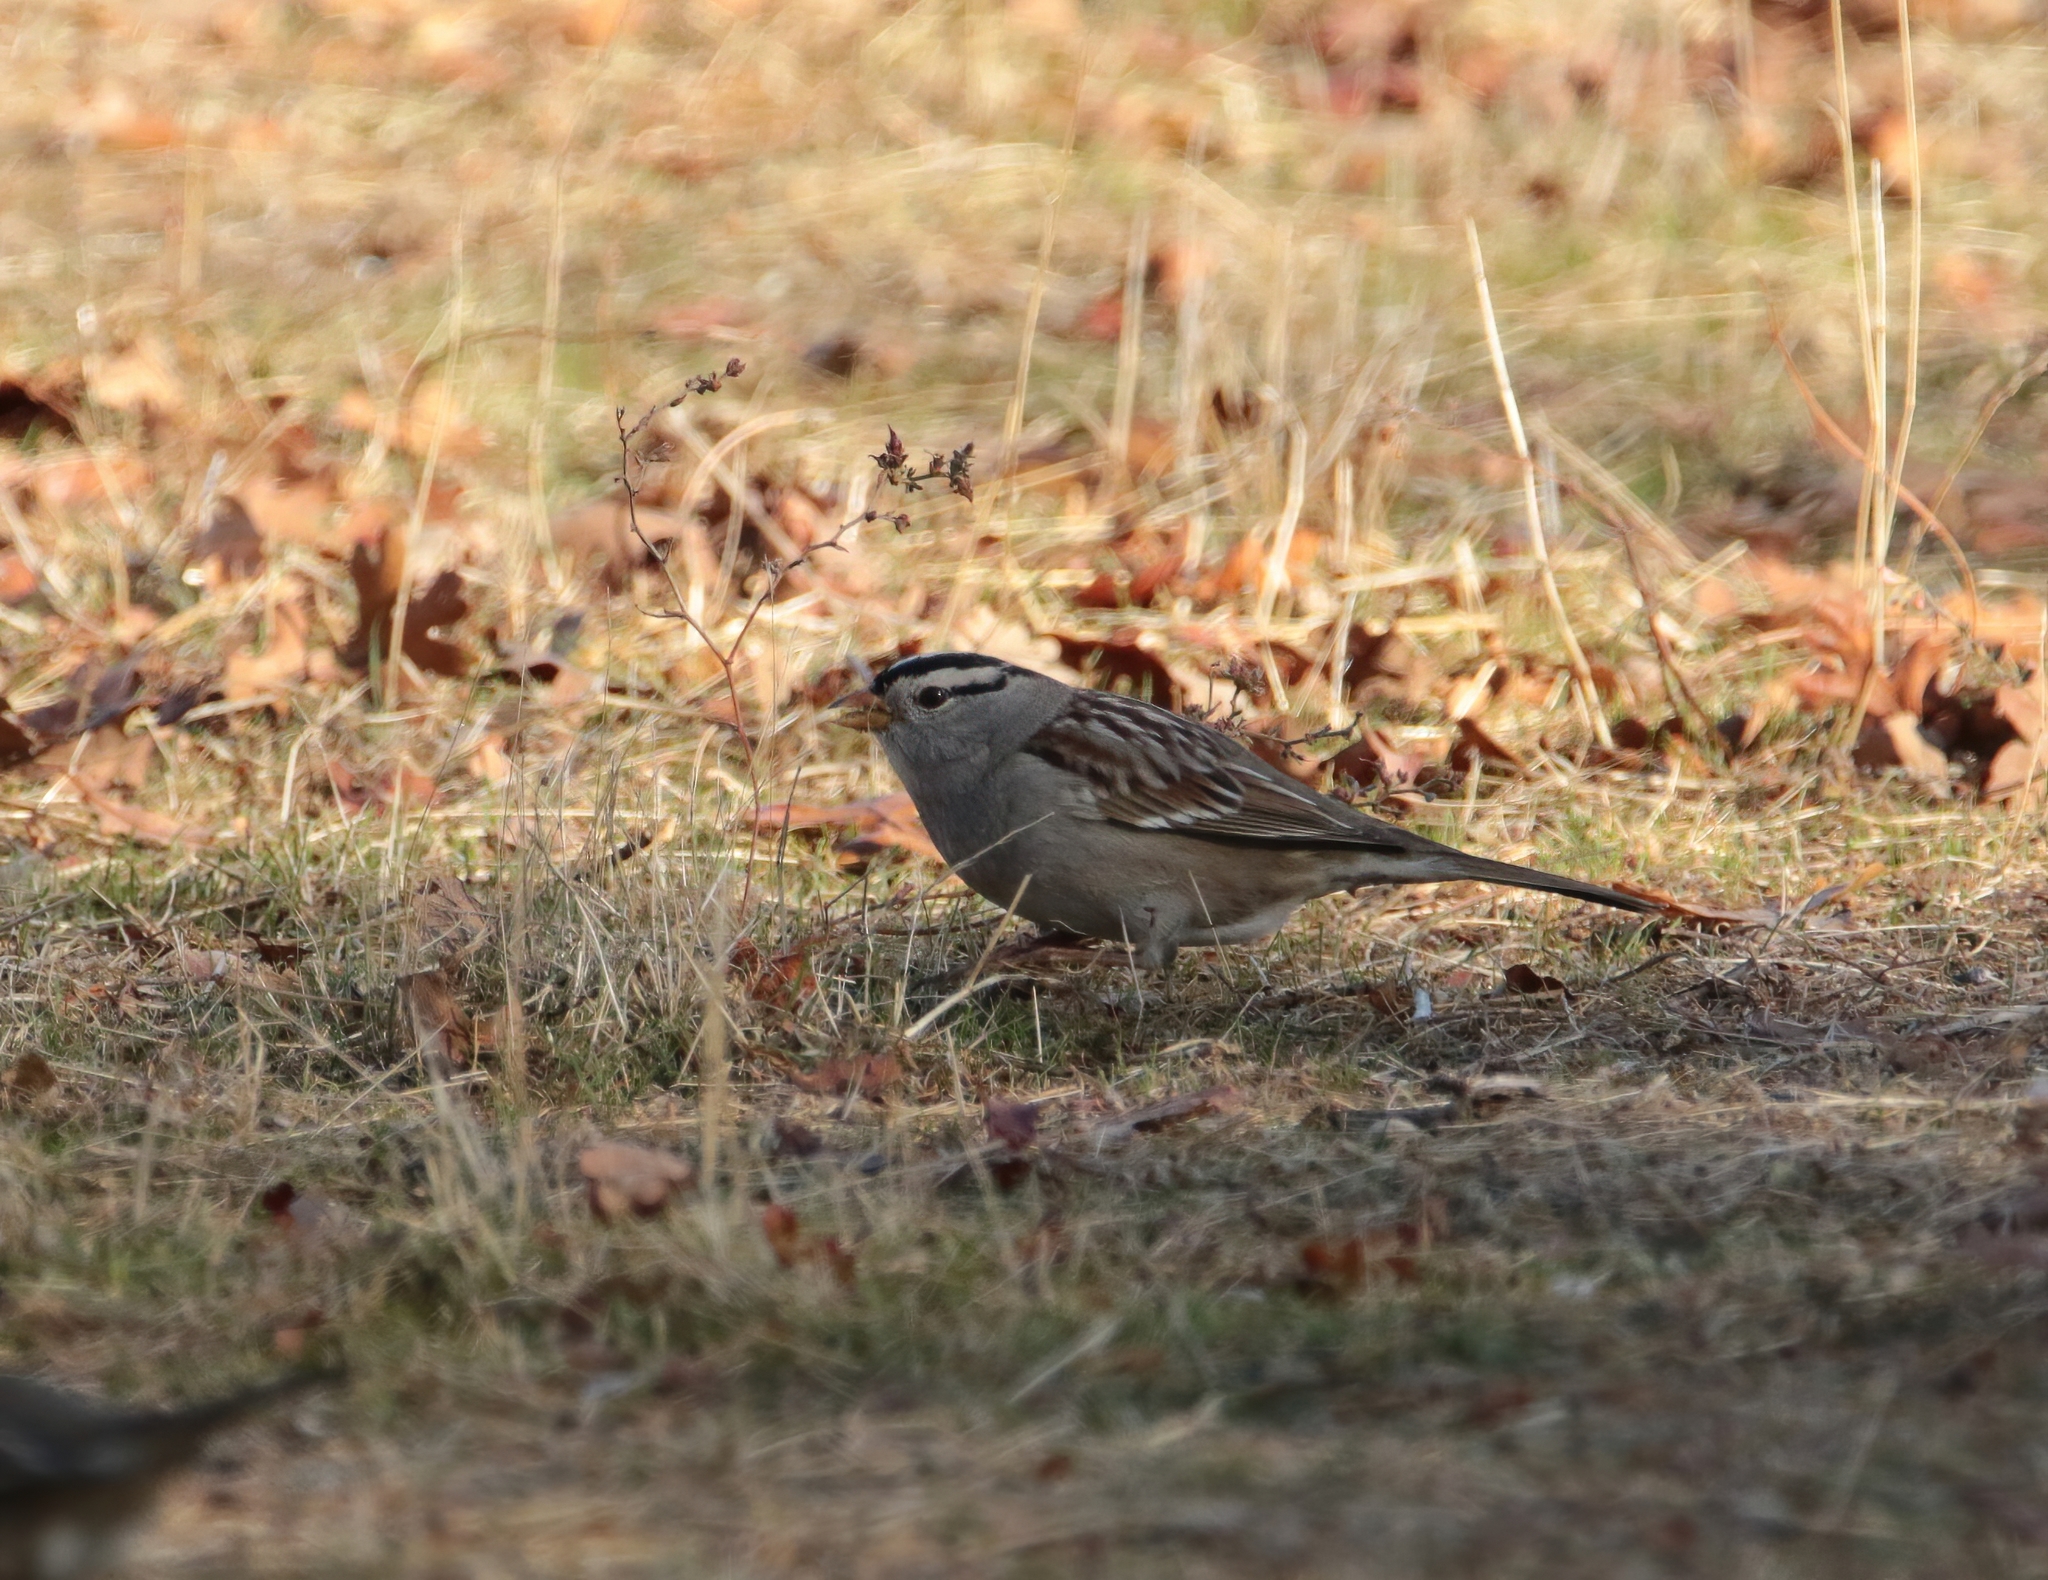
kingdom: Animalia
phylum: Chordata
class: Aves
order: Passeriformes
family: Passerellidae
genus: Zonotrichia
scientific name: Zonotrichia leucophrys
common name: White-crowned sparrow
